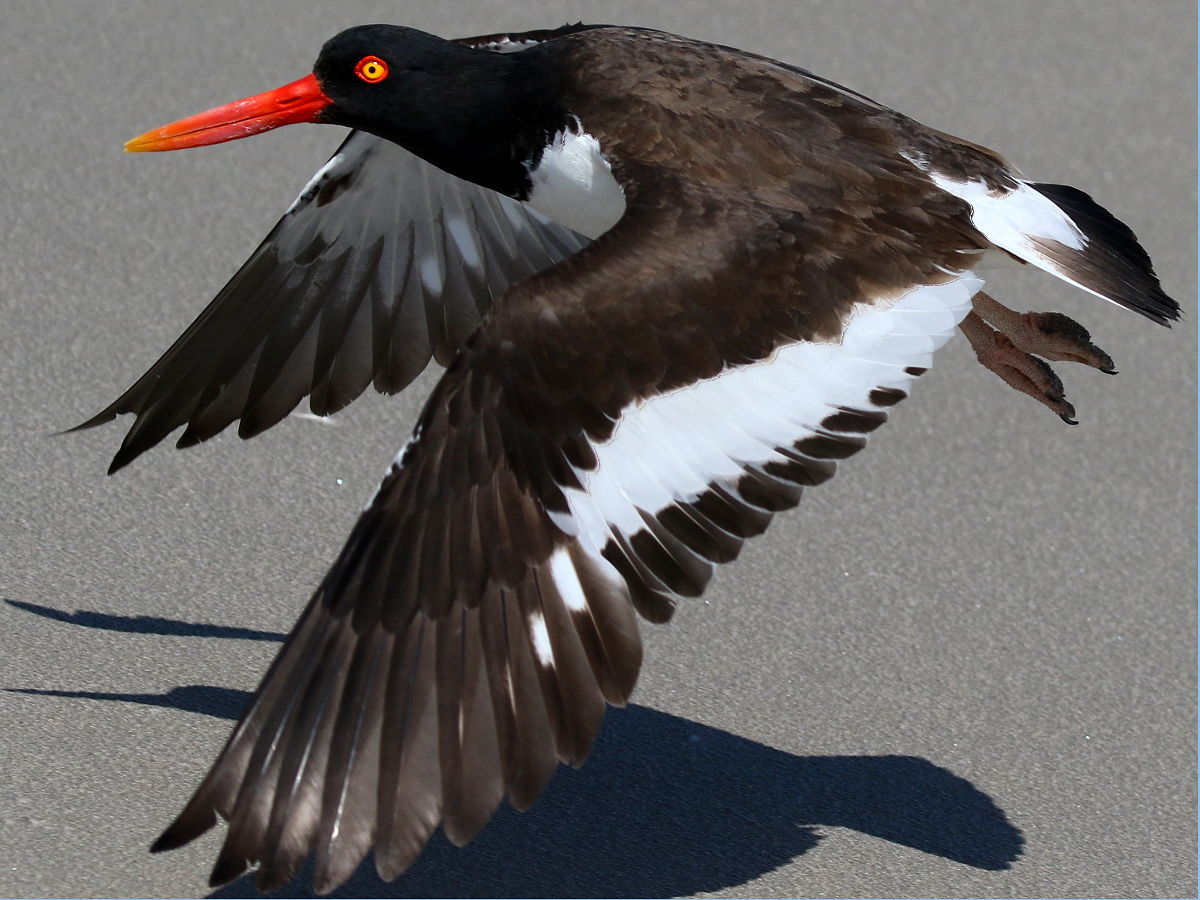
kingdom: Animalia
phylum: Chordata
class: Aves
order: Charadriiformes
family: Haematopodidae
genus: Haematopus
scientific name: Haematopus palliatus
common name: American oystercatcher
